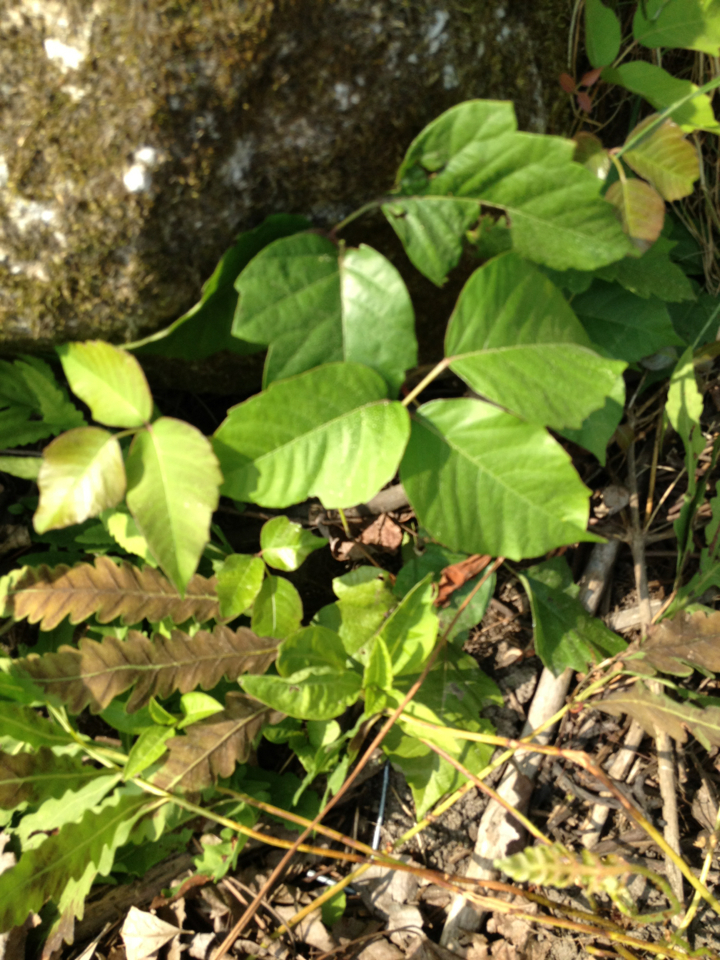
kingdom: Plantae
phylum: Tracheophyta
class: Magnoliopsida
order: Sapindales
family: Anacardiaceae
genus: Toxicodendron
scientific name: Toxicodendron radicans
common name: Poison ivy
